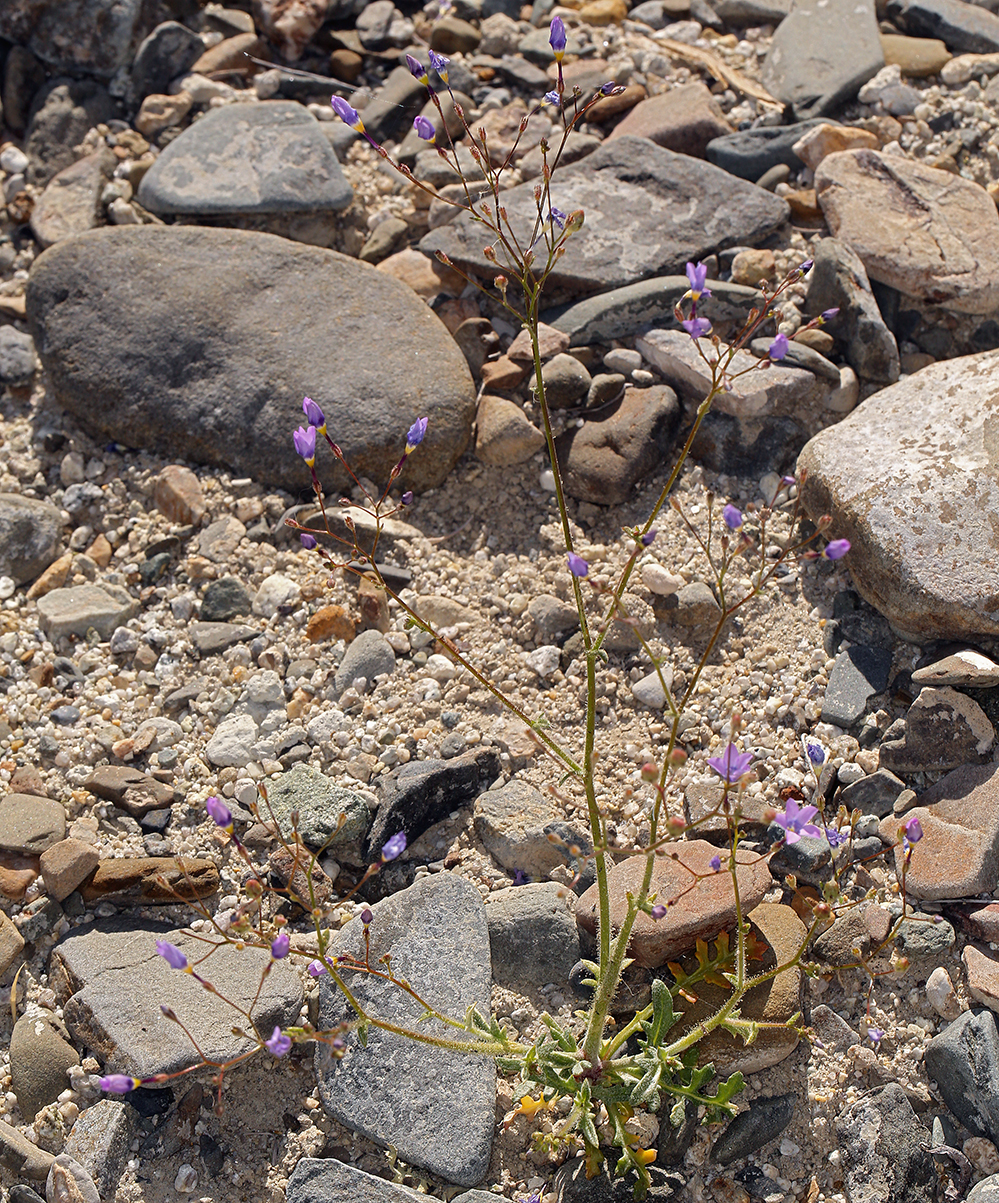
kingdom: Plantae
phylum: Tracheophyta
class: Magnoliopsida
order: Ericales
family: Polemoniaceae
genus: Gilia
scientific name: Gilia cana
